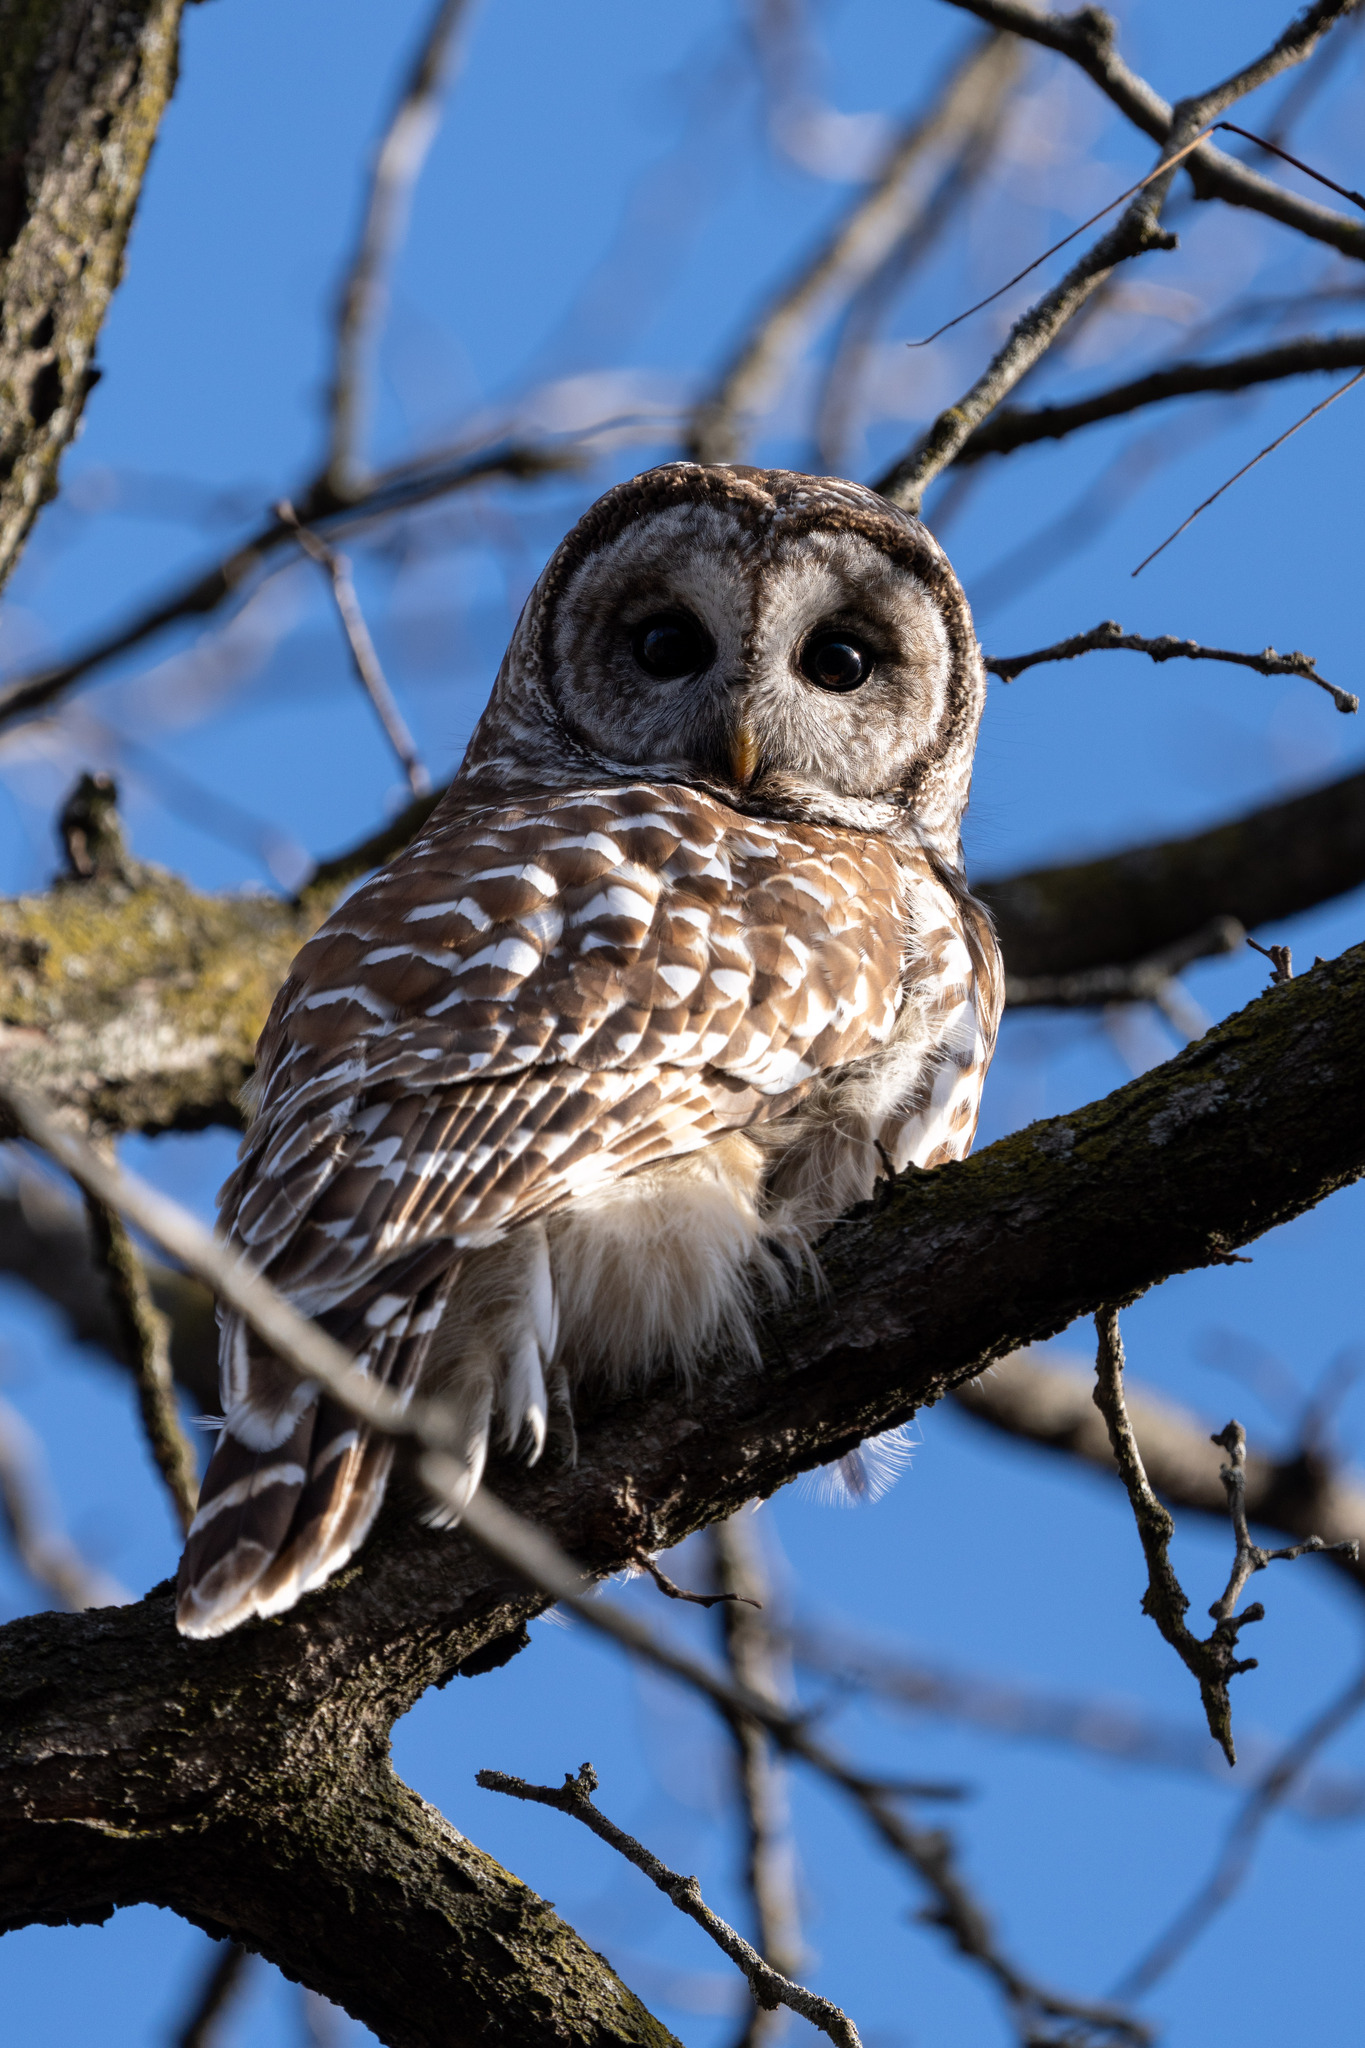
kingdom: Animalia
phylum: Chordata
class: Aves
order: Strigiformes
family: Strigidae
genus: Strix
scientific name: Strix varia
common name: Barred owl
